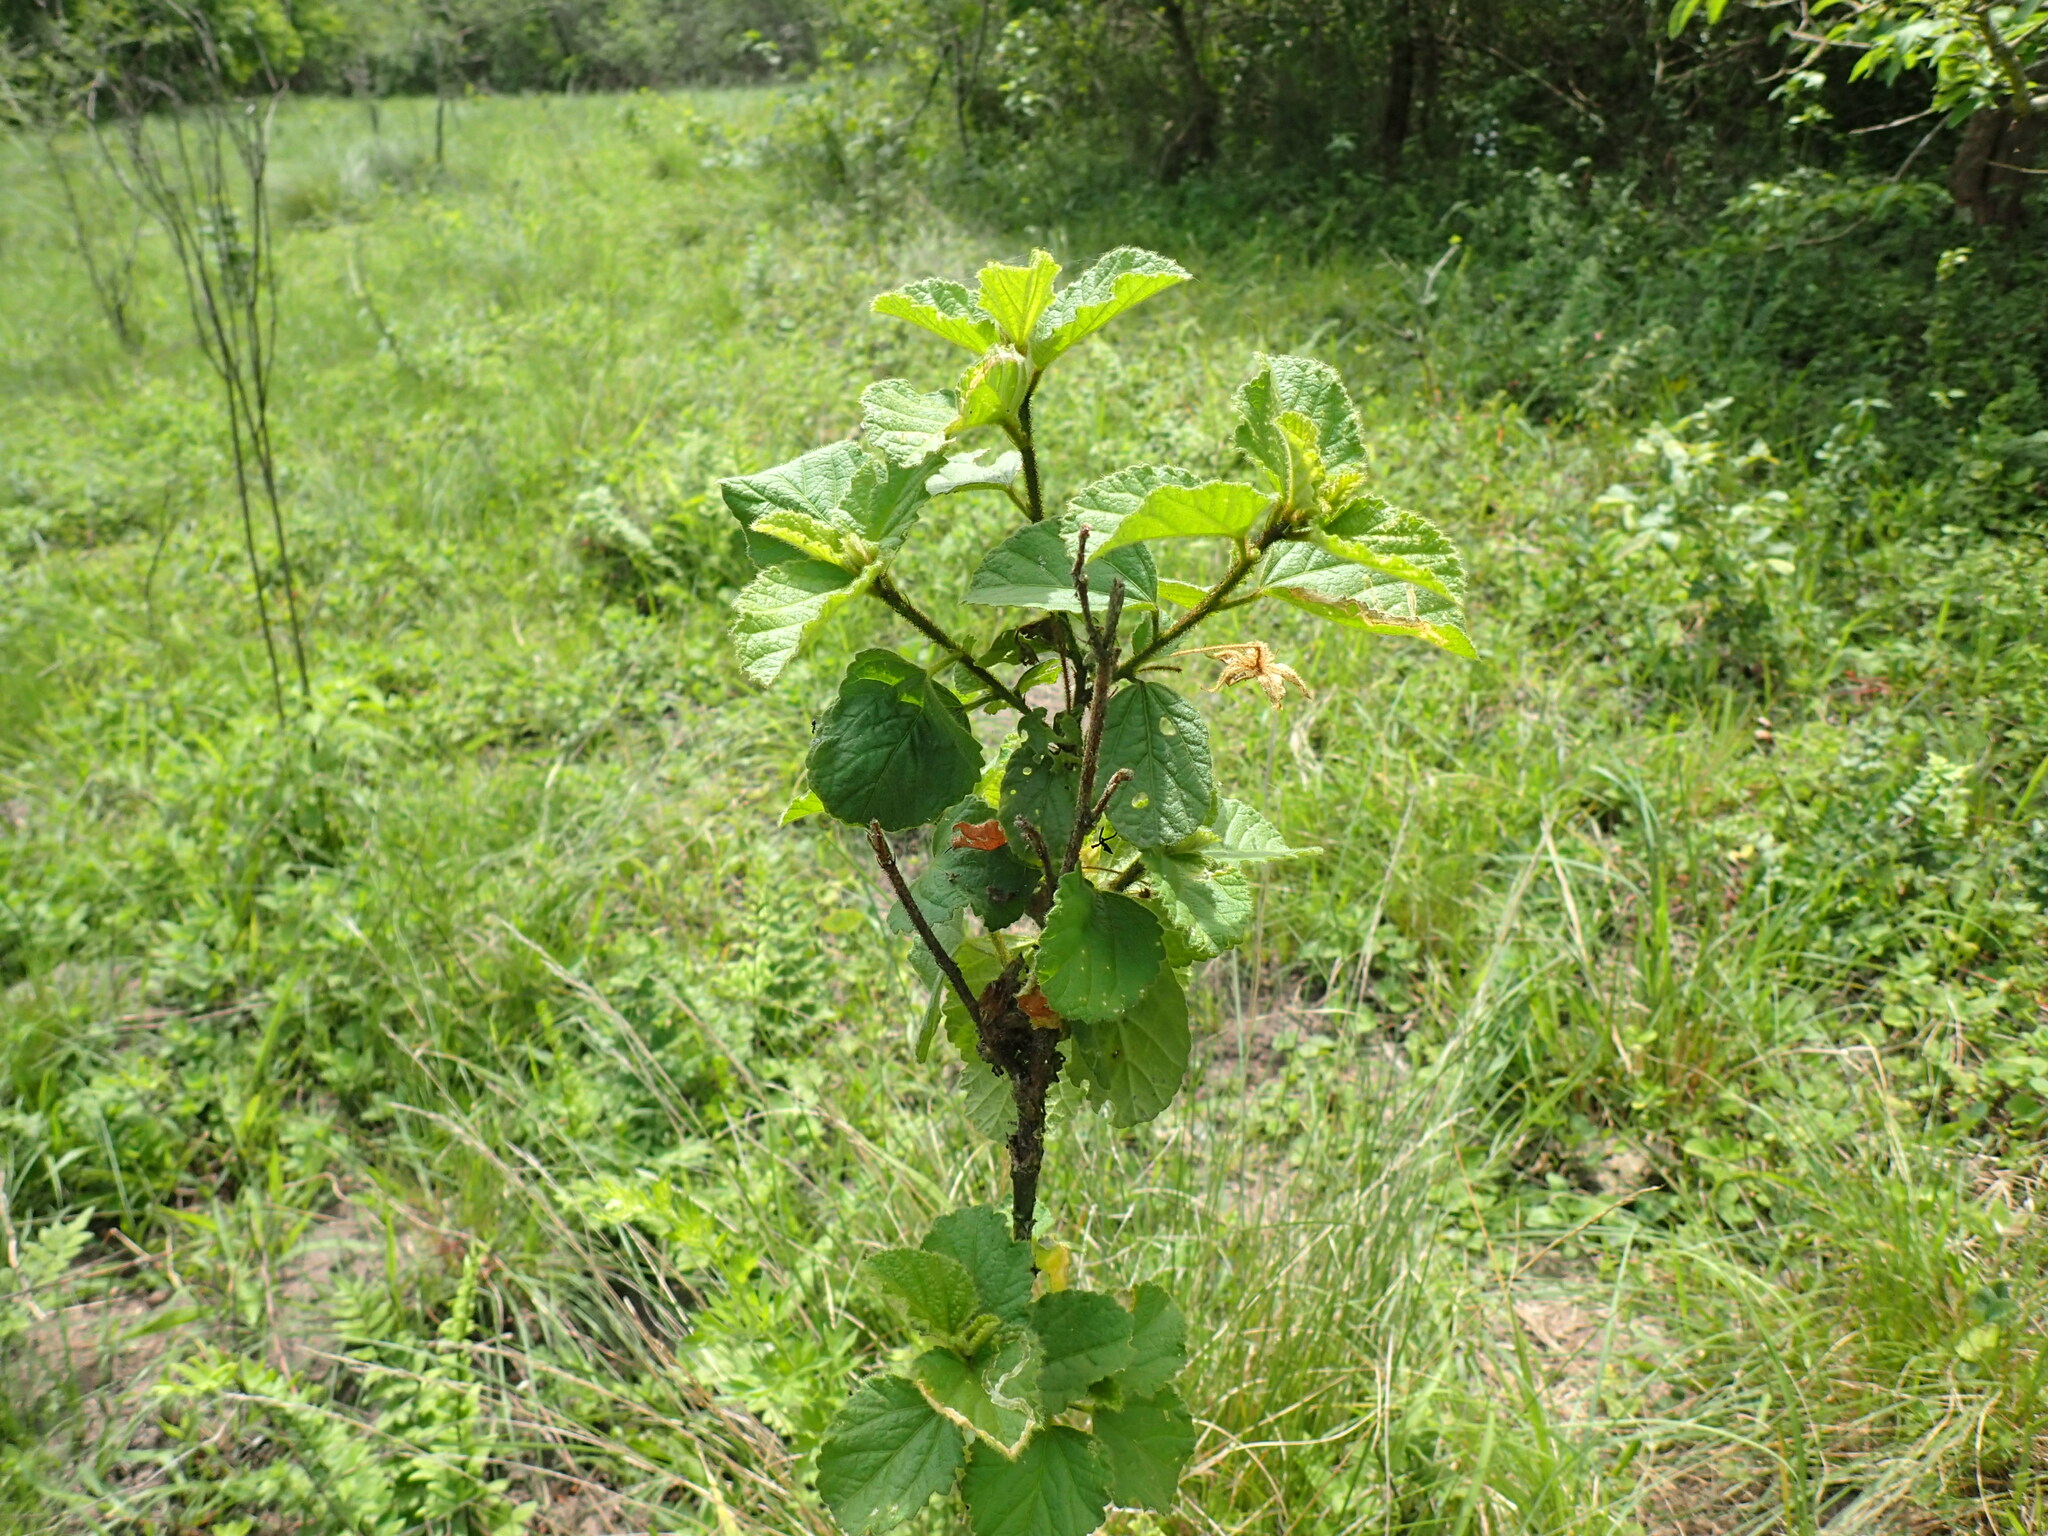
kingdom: Plantae
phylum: Tracheophyta
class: Magnoliopsida
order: Malvales
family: Malvaceae
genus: Hibiscus
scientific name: Hibiscus fuscus
